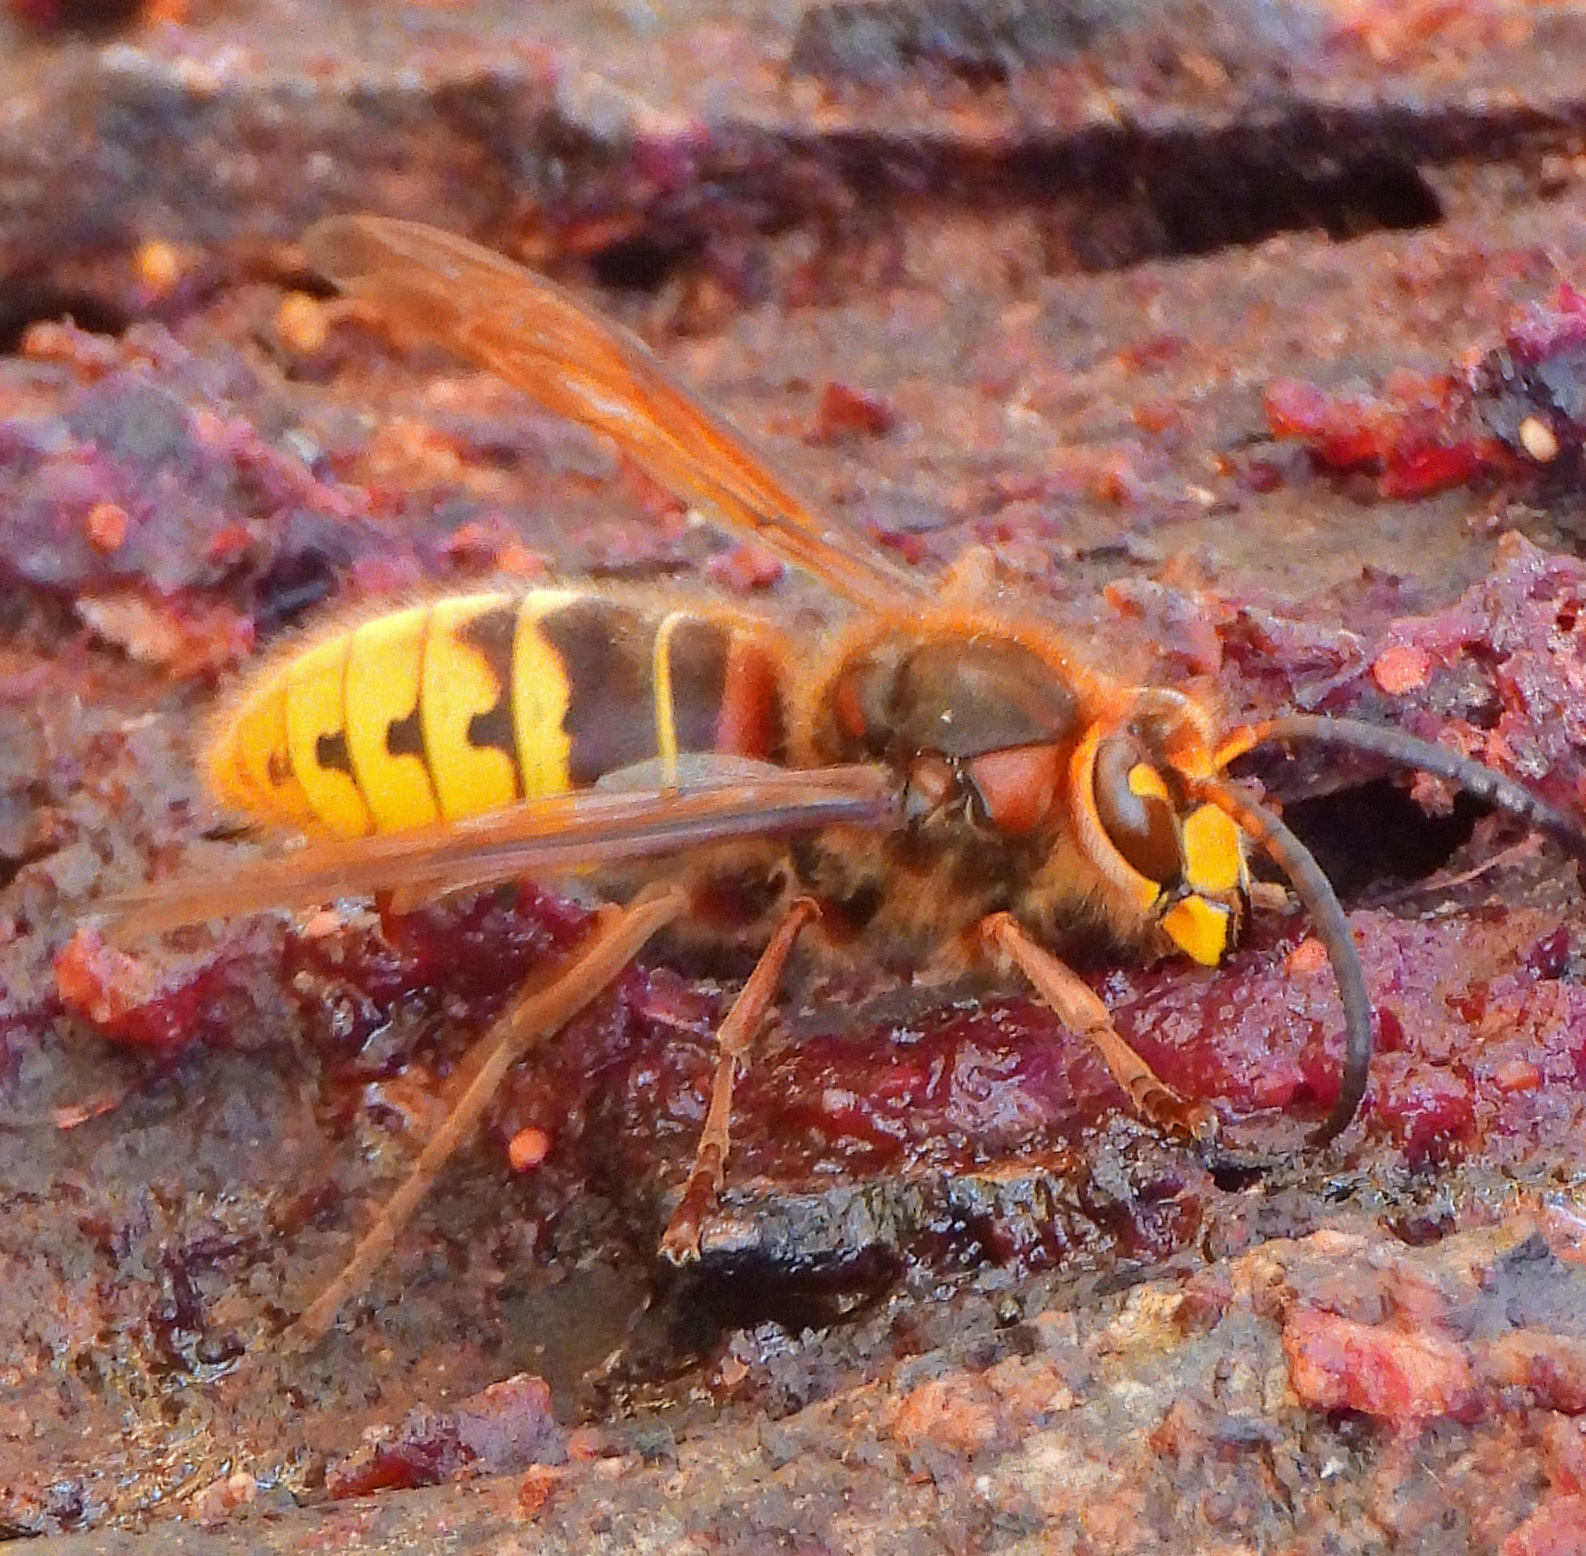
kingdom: Animalia
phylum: Arthropoda
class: Insecta
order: Hymenoptera
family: Vespidae
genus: Vespa
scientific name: Vespa crabro
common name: Hornet
